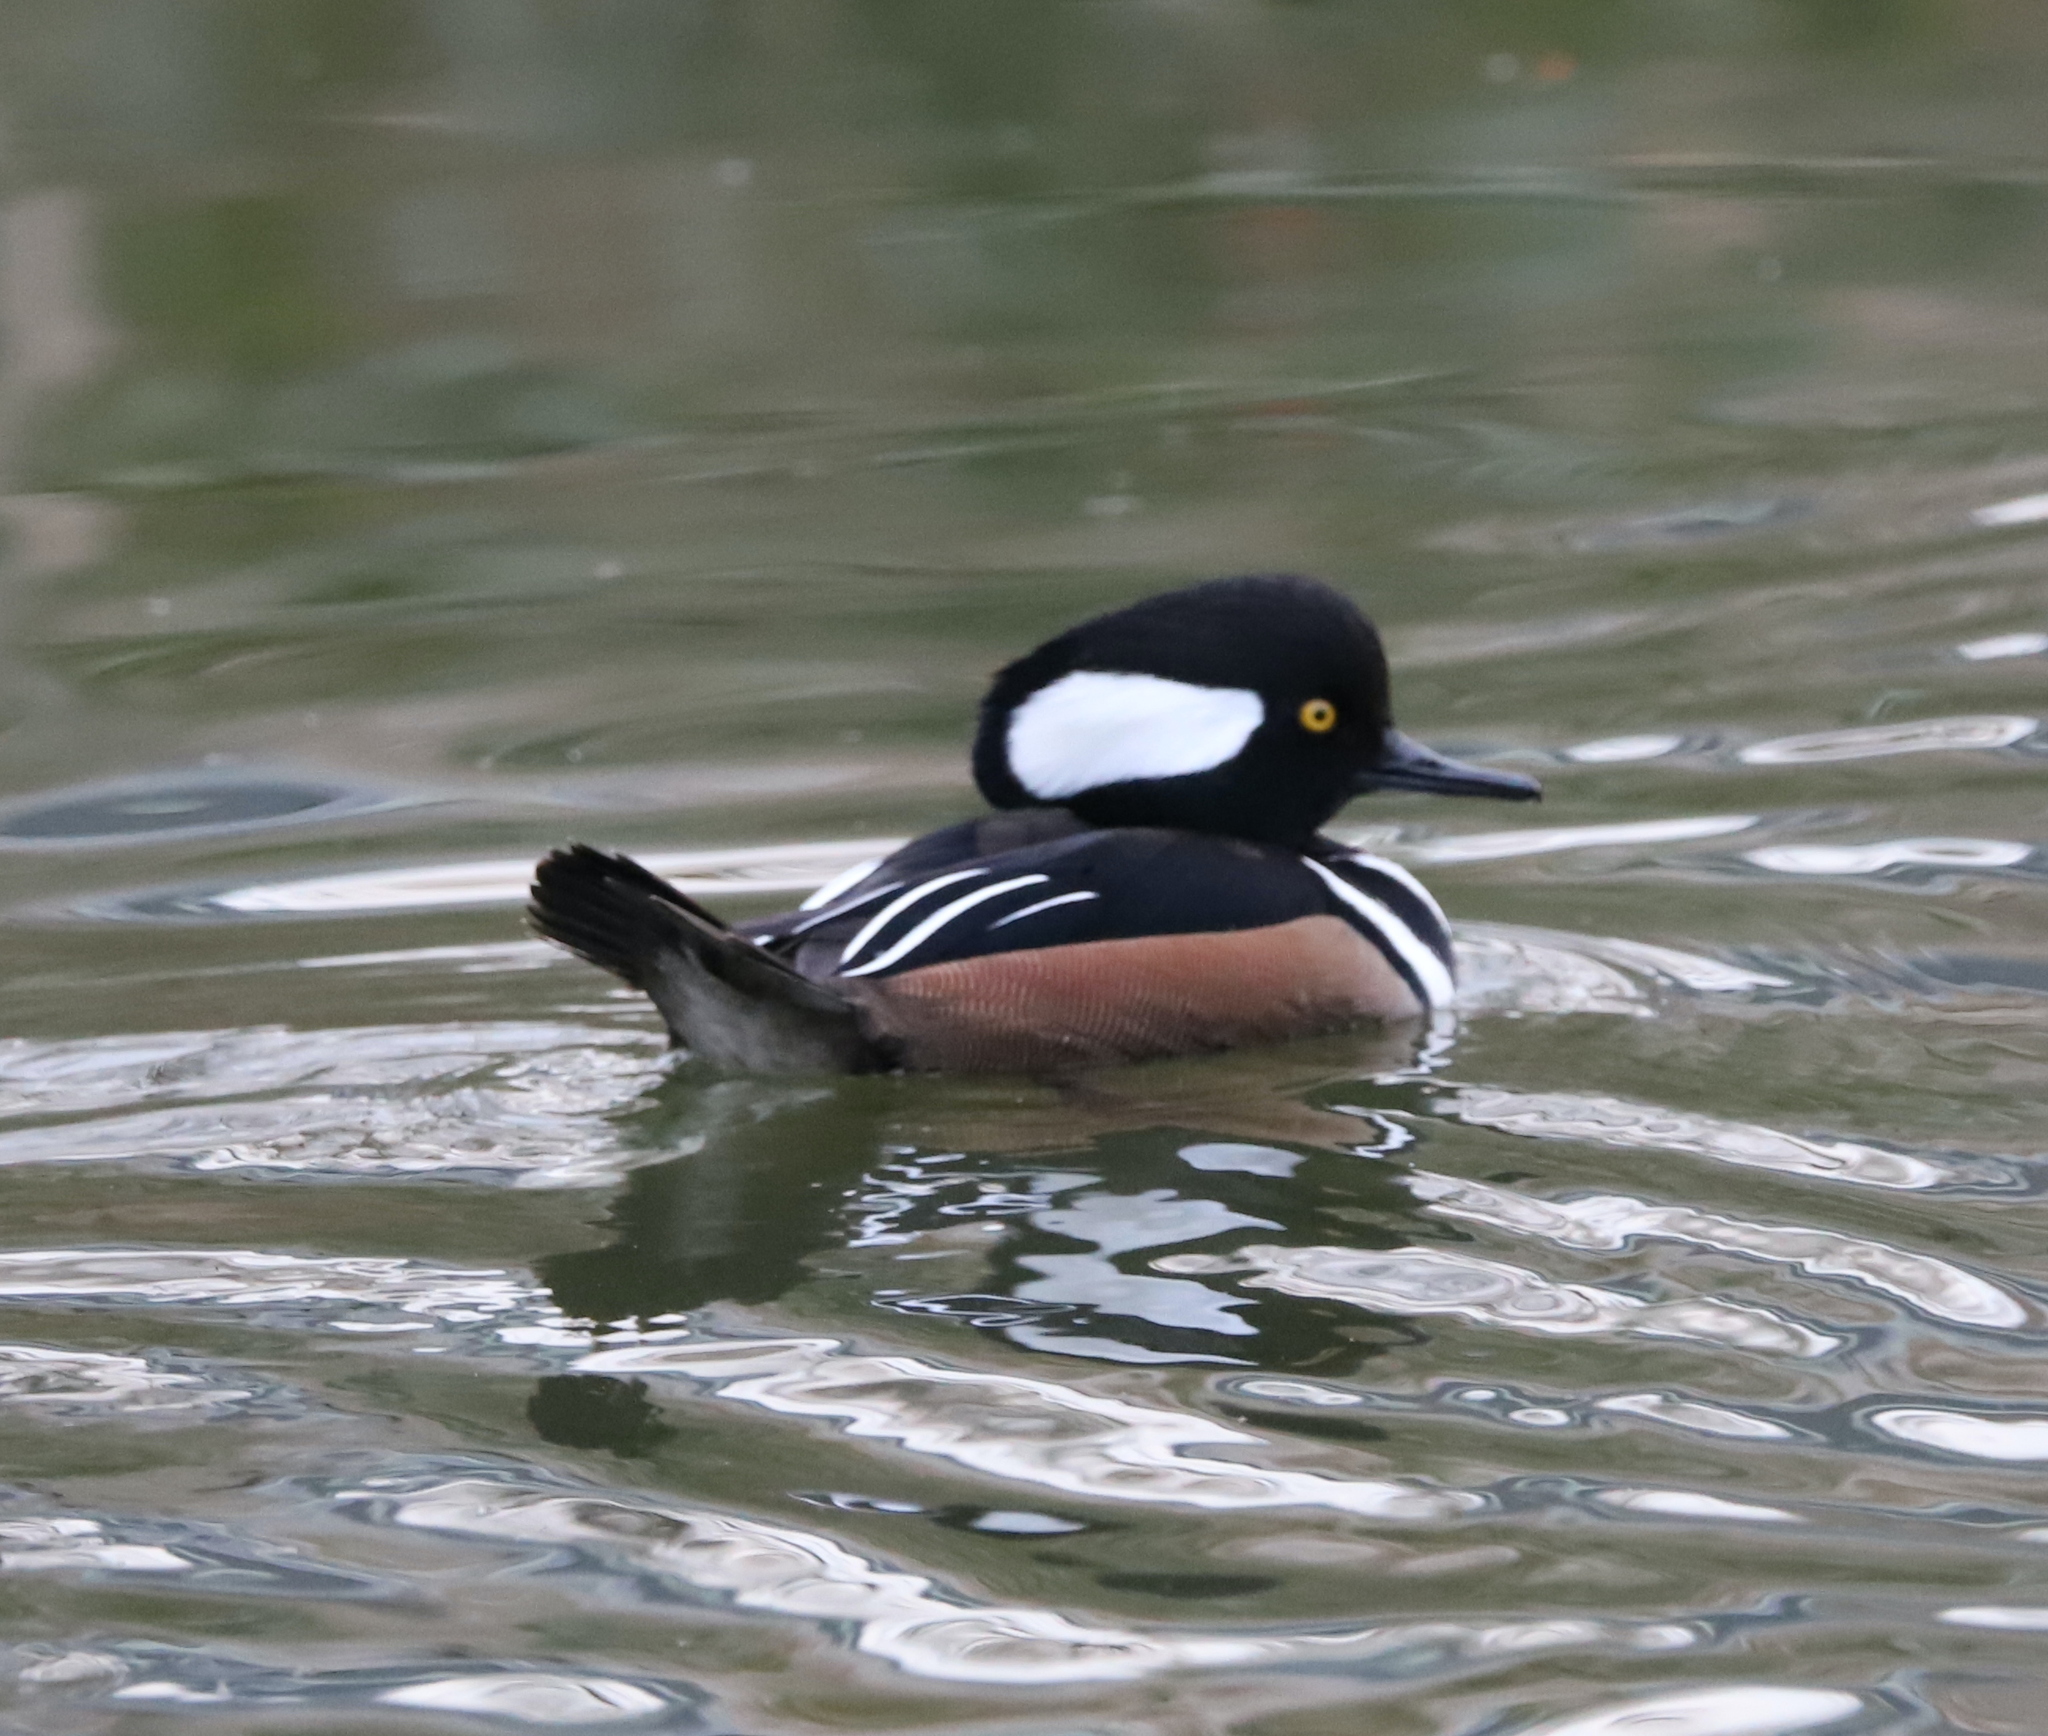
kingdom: Animalia
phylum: Chordata
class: Aves
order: Anseriformes
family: Anatidae
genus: Lophodytes
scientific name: Lophodytes cucullatus
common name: Hooded merganser
